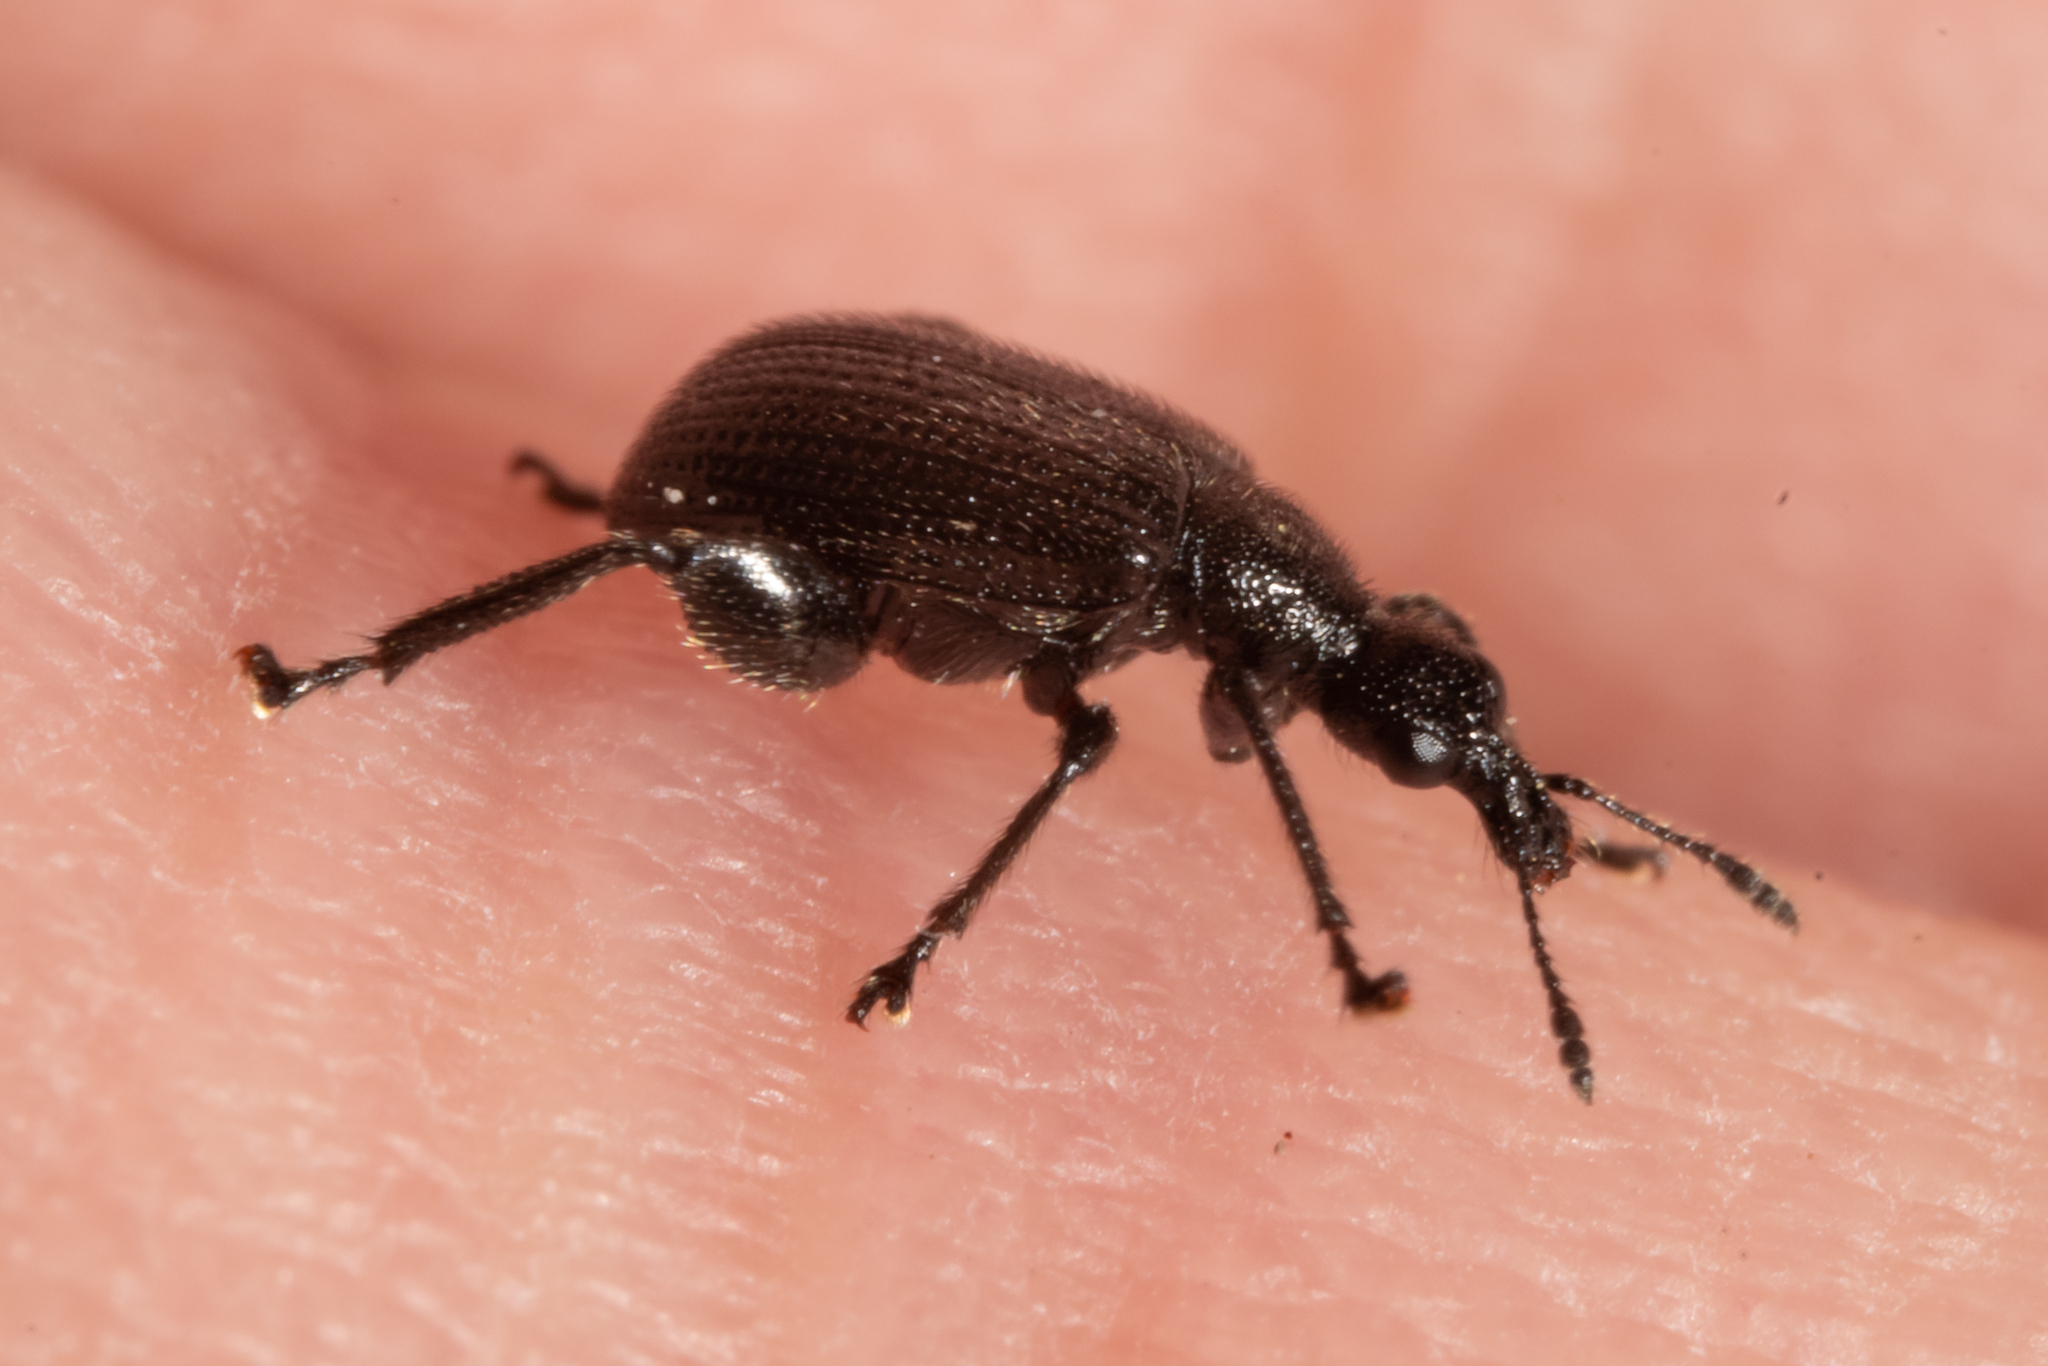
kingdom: Animalia
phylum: Arthropoda
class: Insecta
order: Coleoptera
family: Attelabidae
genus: Deporaus
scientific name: Deporaus betulae
